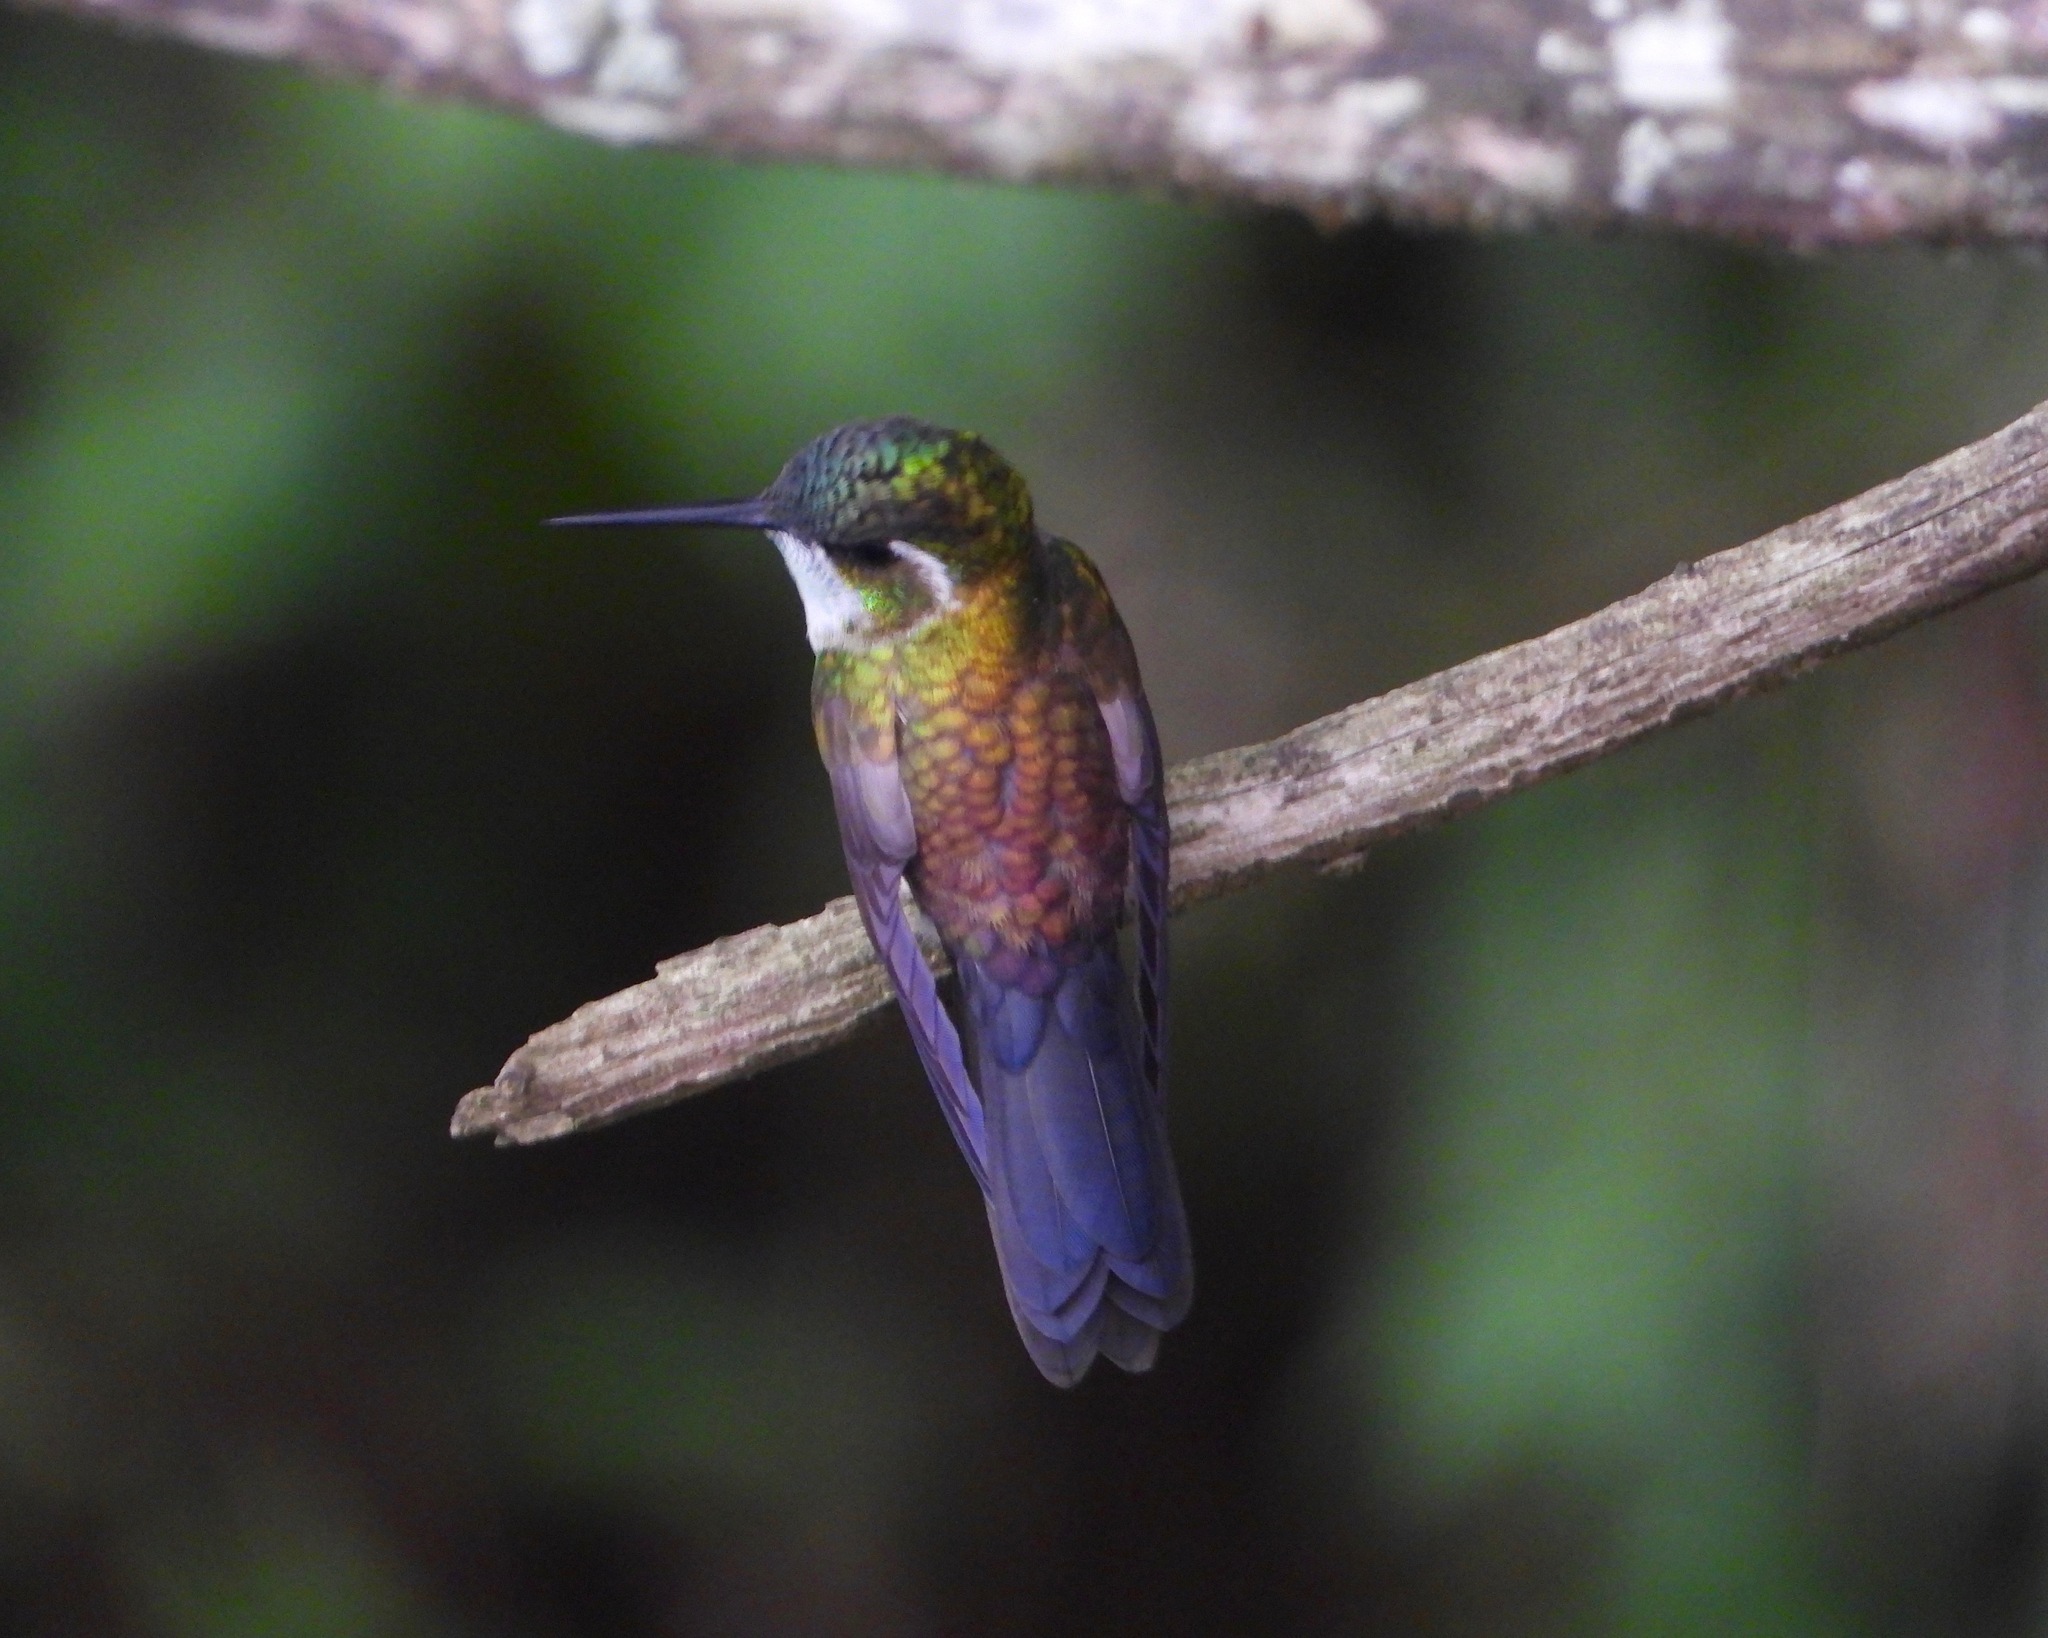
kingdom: Animalia
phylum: Chordata
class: Aves
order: Apodiformes
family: Trochilidae
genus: Lampornis
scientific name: Lampornis viridipallens
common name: Green-throated mountain-gem
